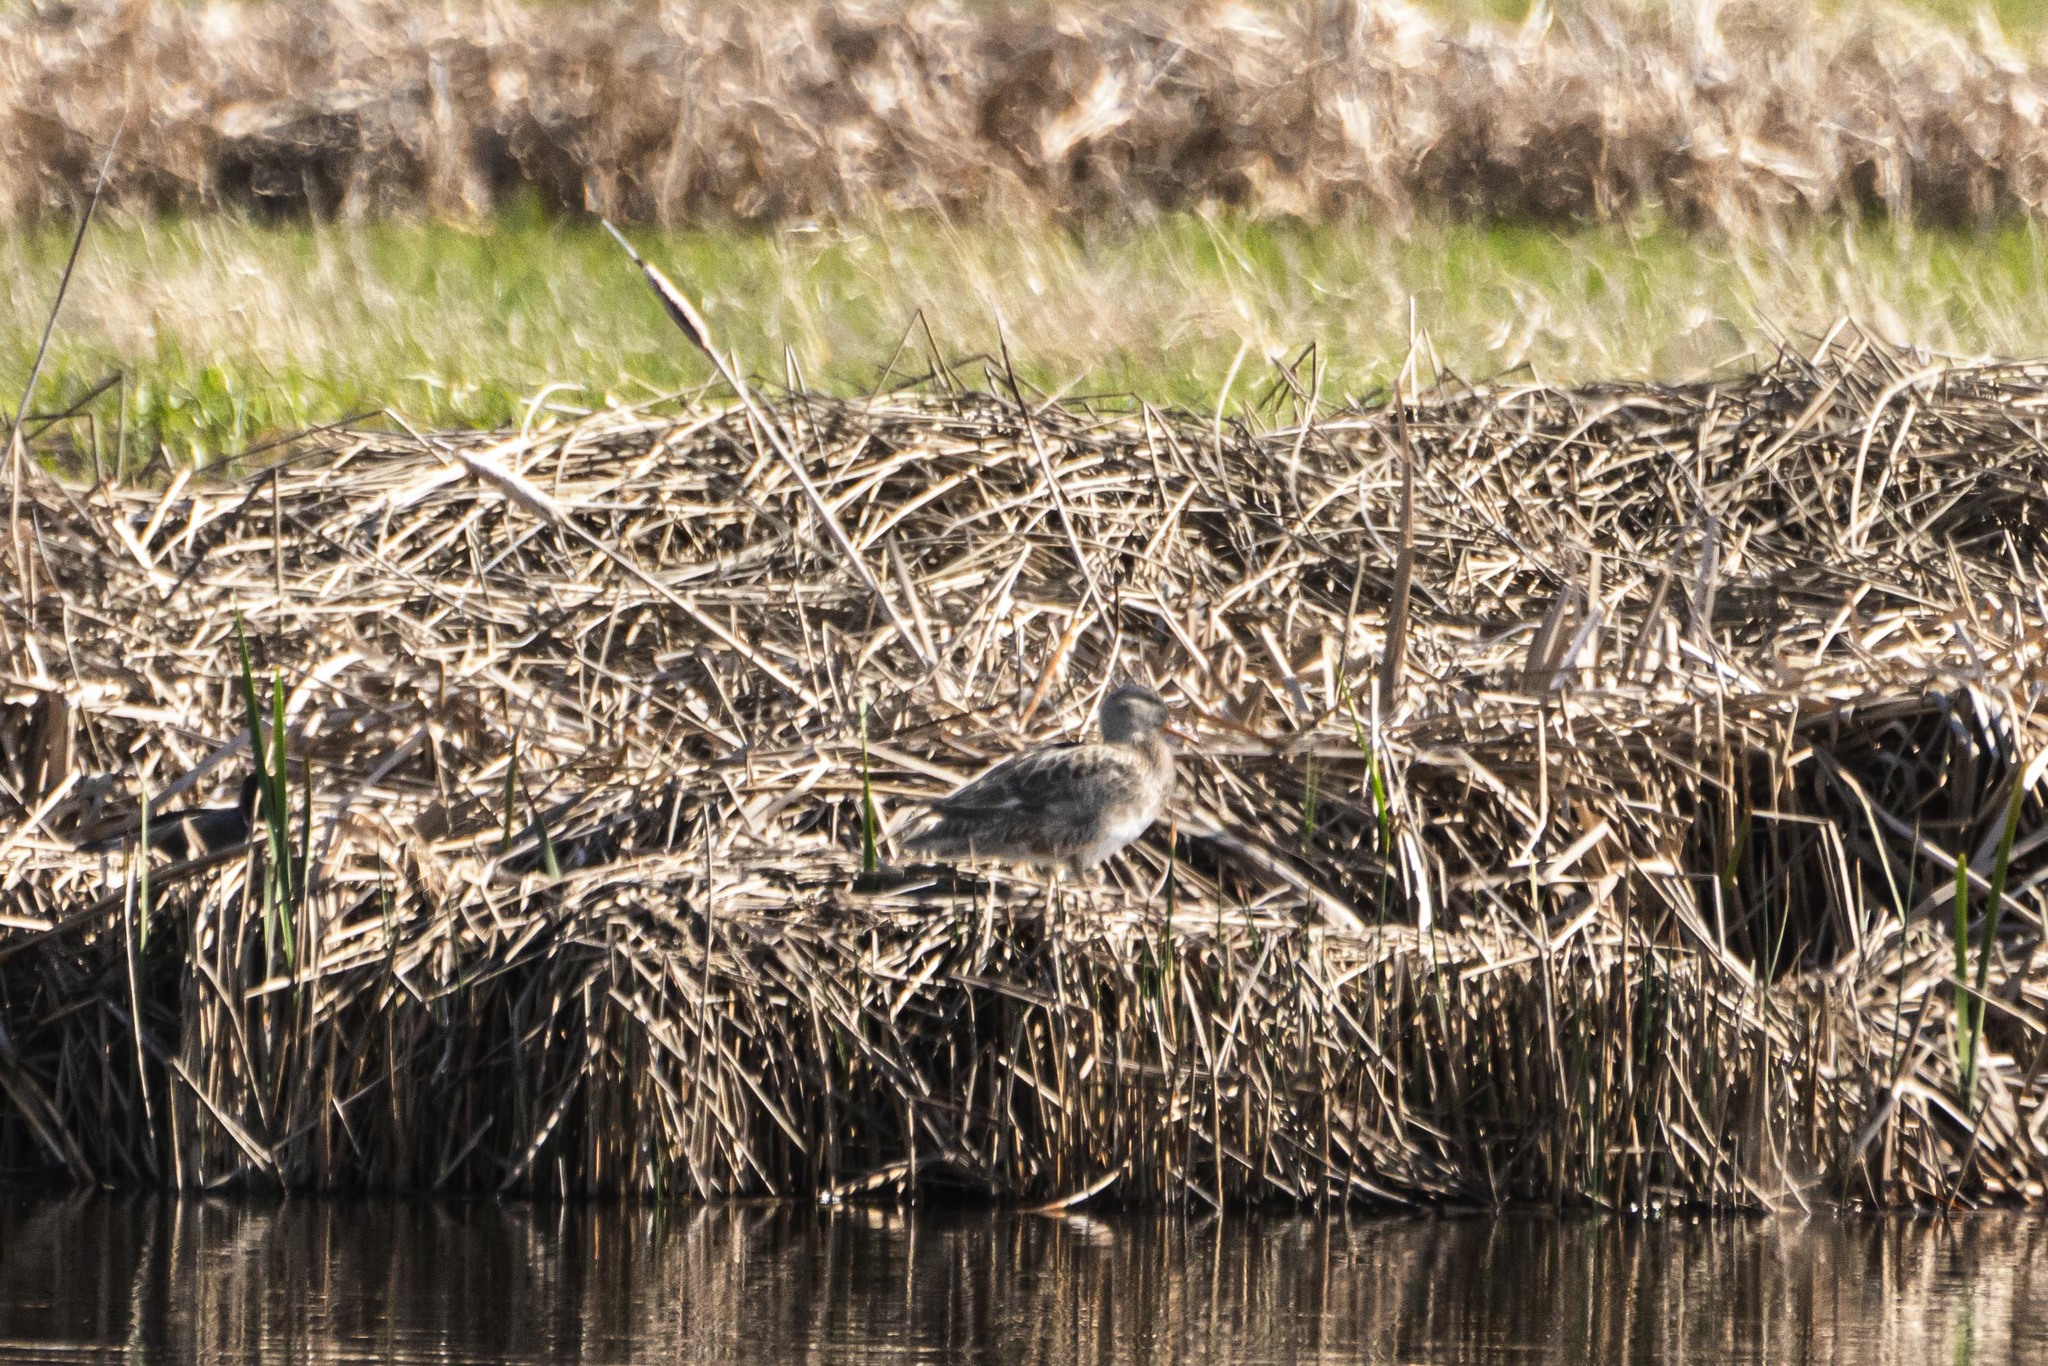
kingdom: Animalia
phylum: Chordata
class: Aves
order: Anseriformes
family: Anatidae
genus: Oxyura
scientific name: Oxyura jamaicensis
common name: Ruddy duck
